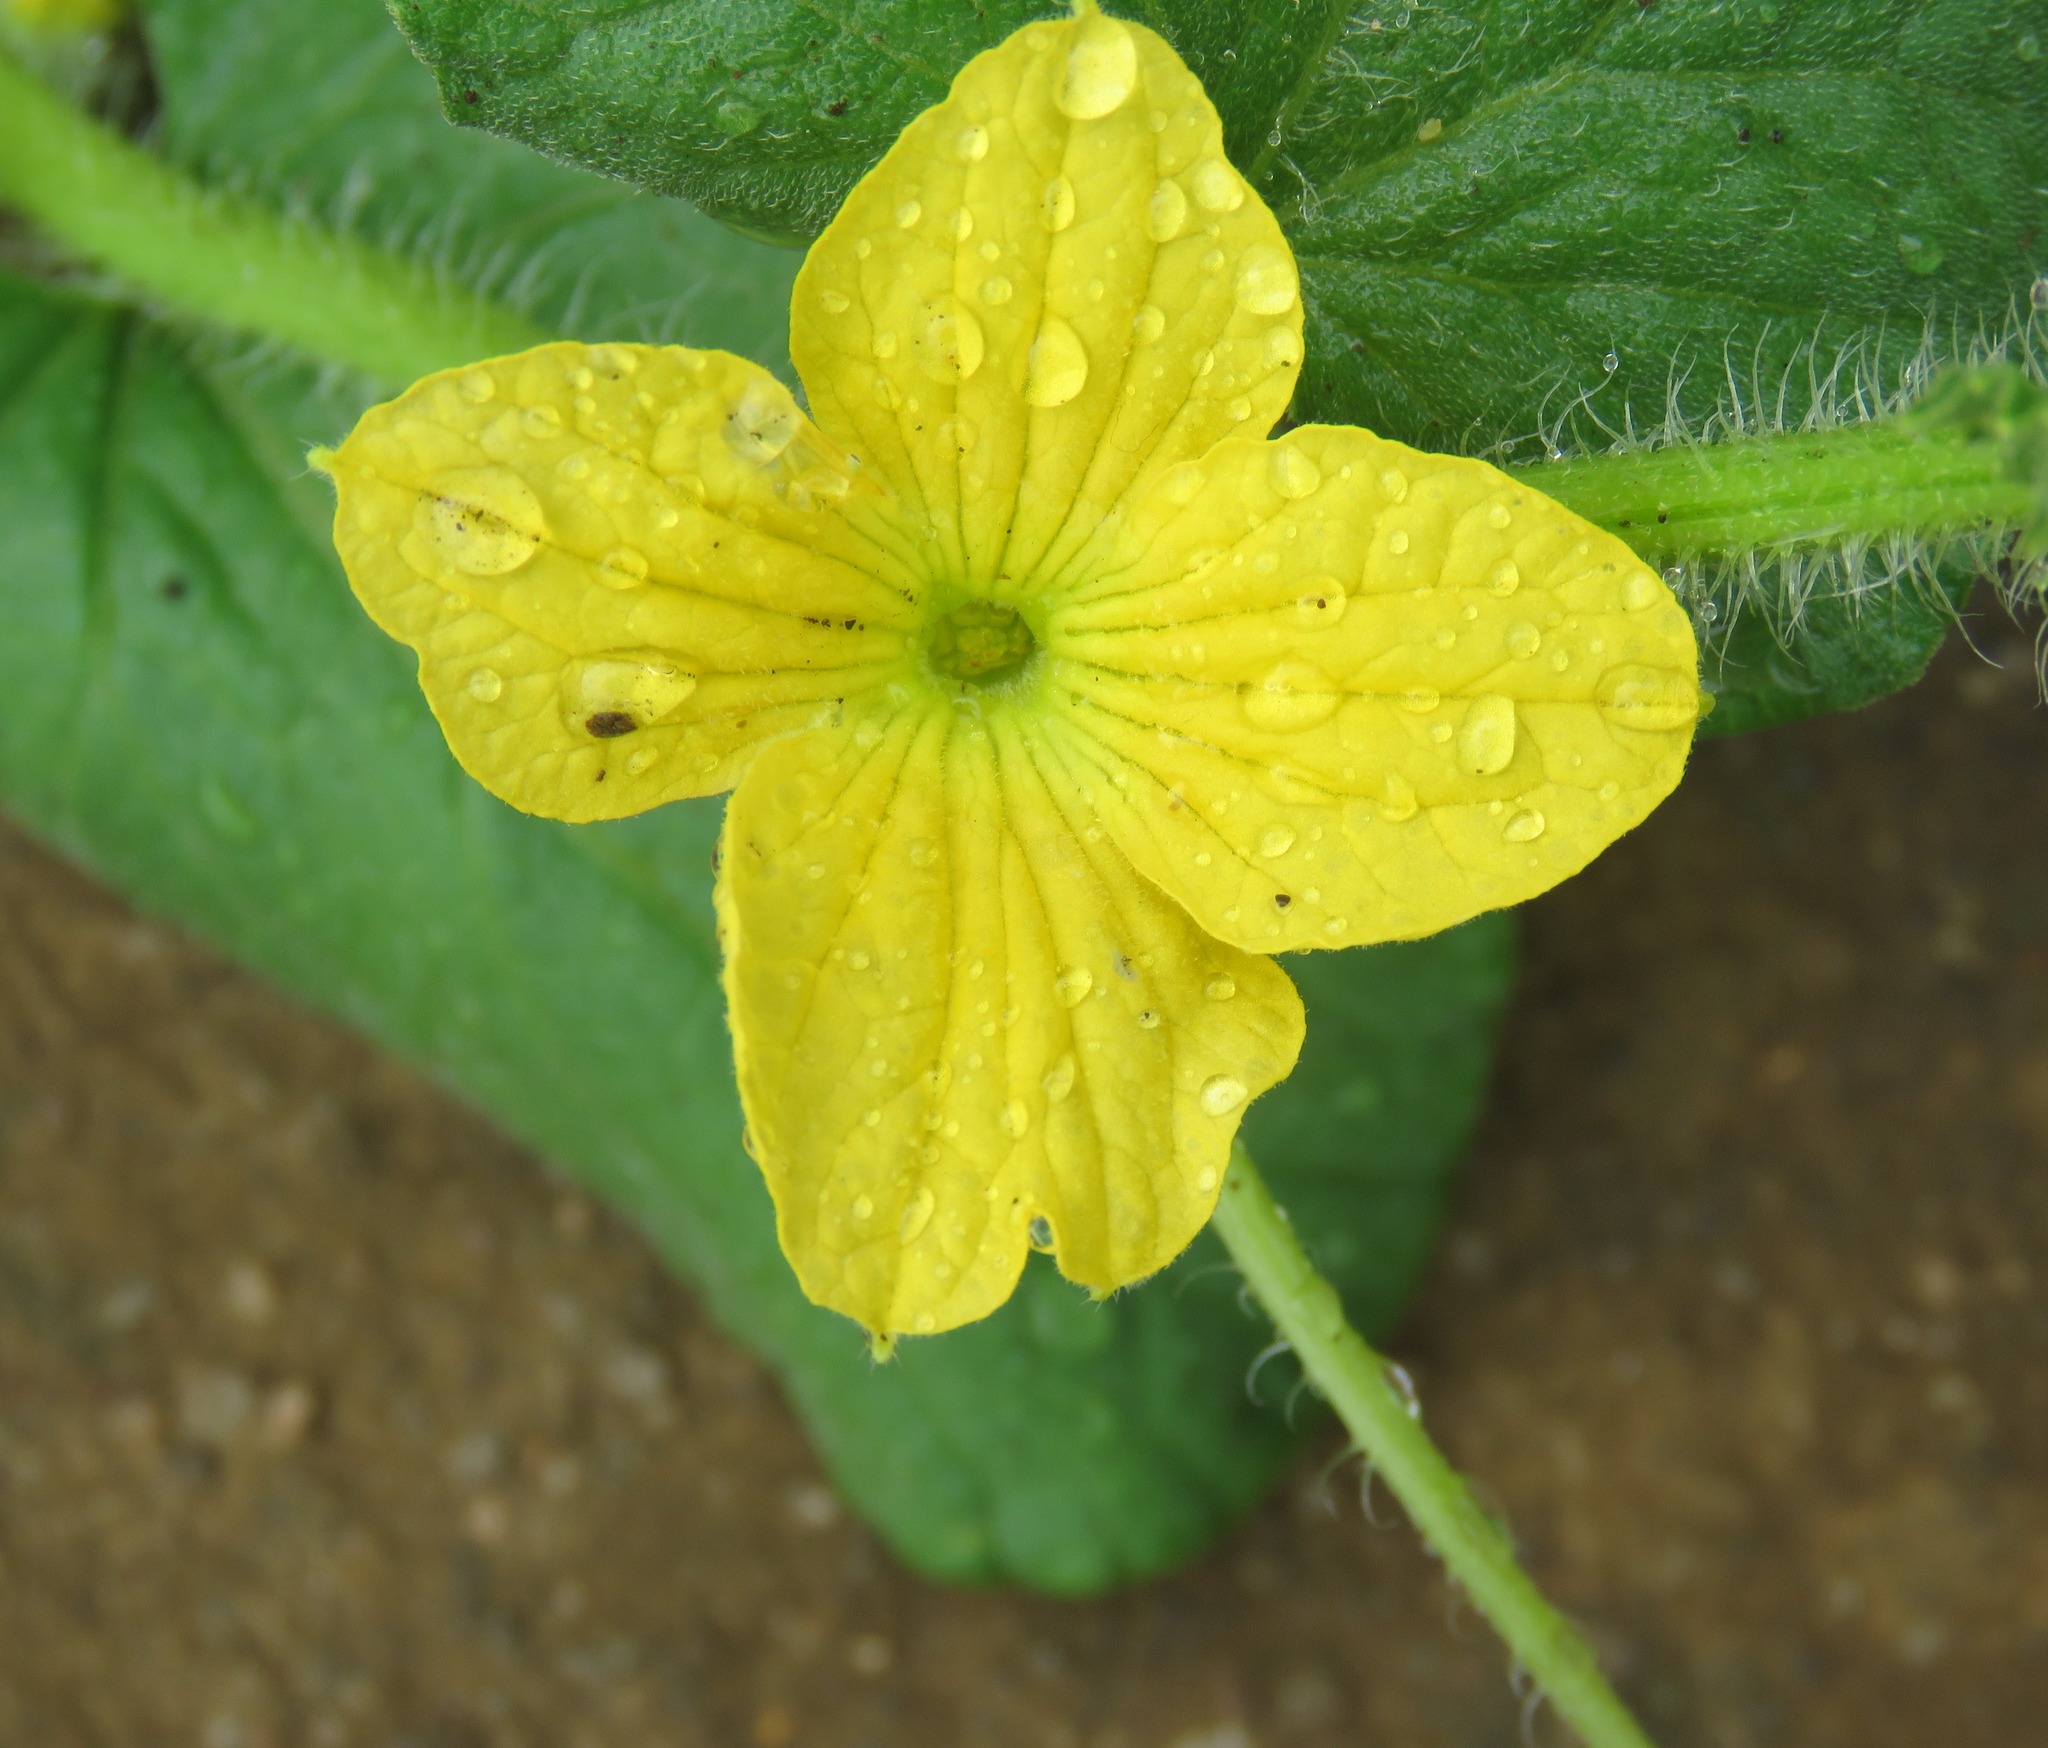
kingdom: Plantae
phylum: Tracheophyta
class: Magnoliopsida
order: Cucurbitales
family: Cucurbitaceae
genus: Cucumis
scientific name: Cucumis melo
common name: Melon
